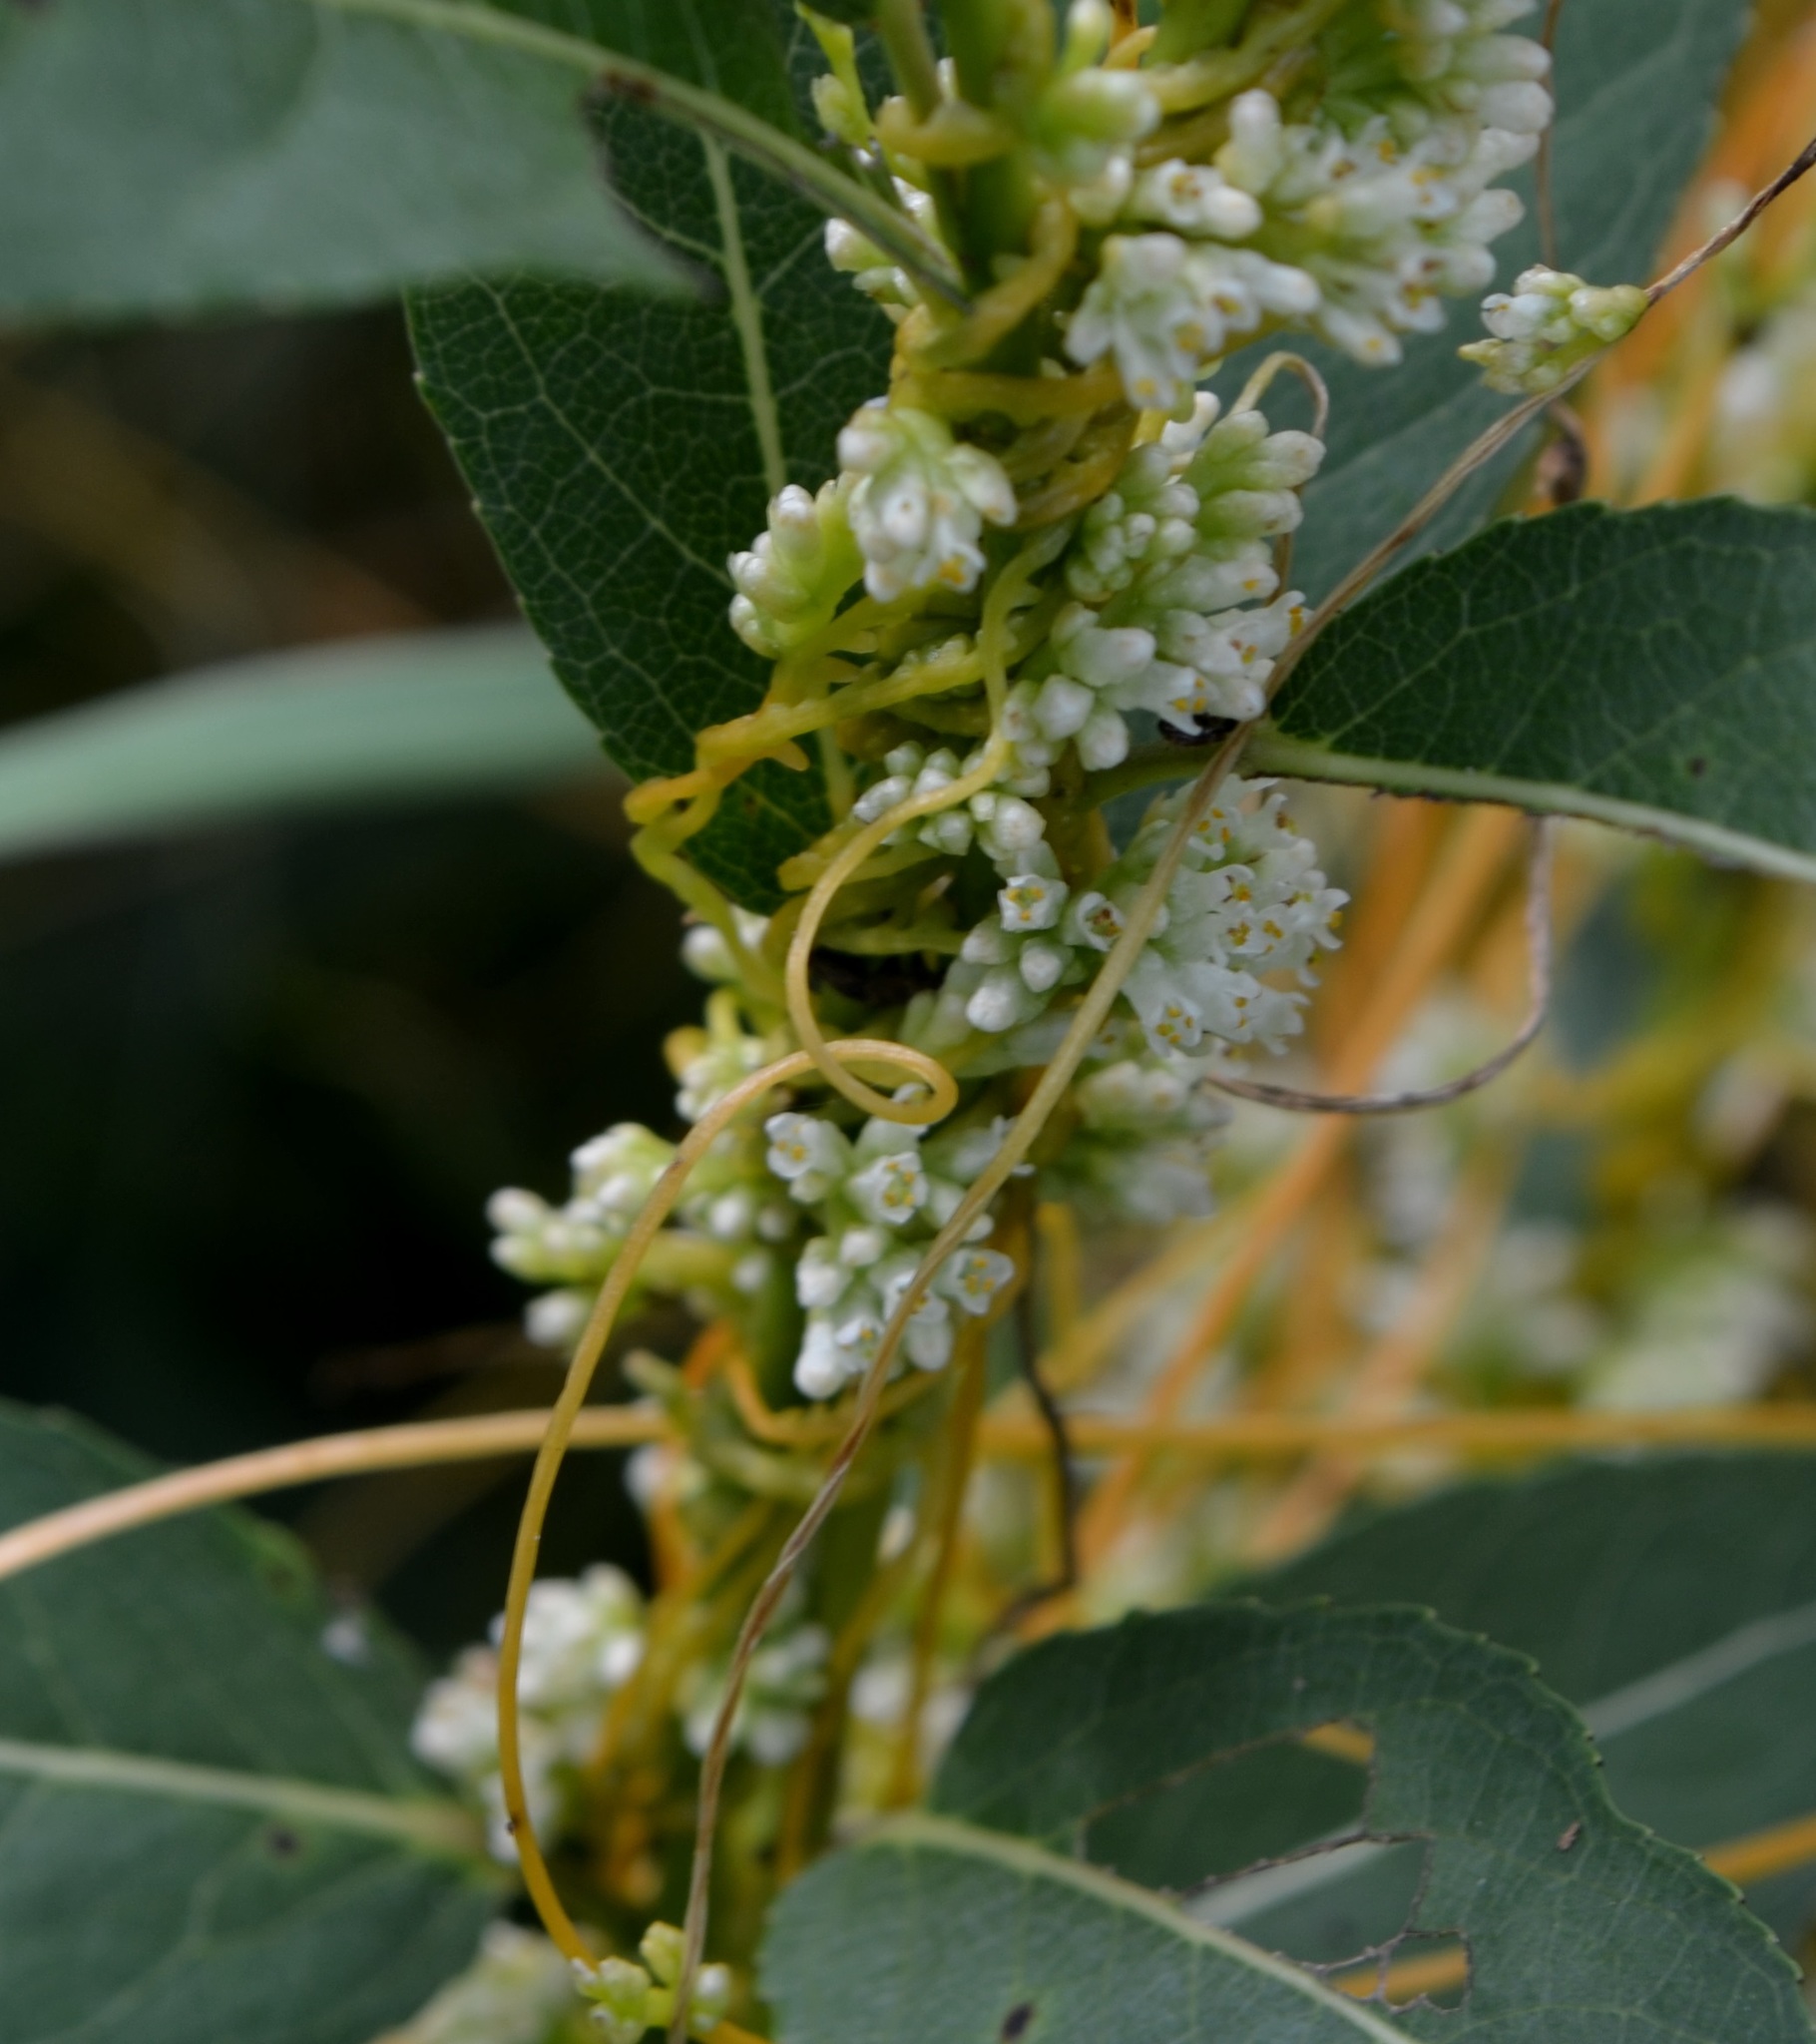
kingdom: Plantae
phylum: Tracheophyta
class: Magnoliopsida
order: Solanales
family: Convolvulaceae
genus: Cuscuta
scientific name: Cuscuta gronovii
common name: Common dodder
